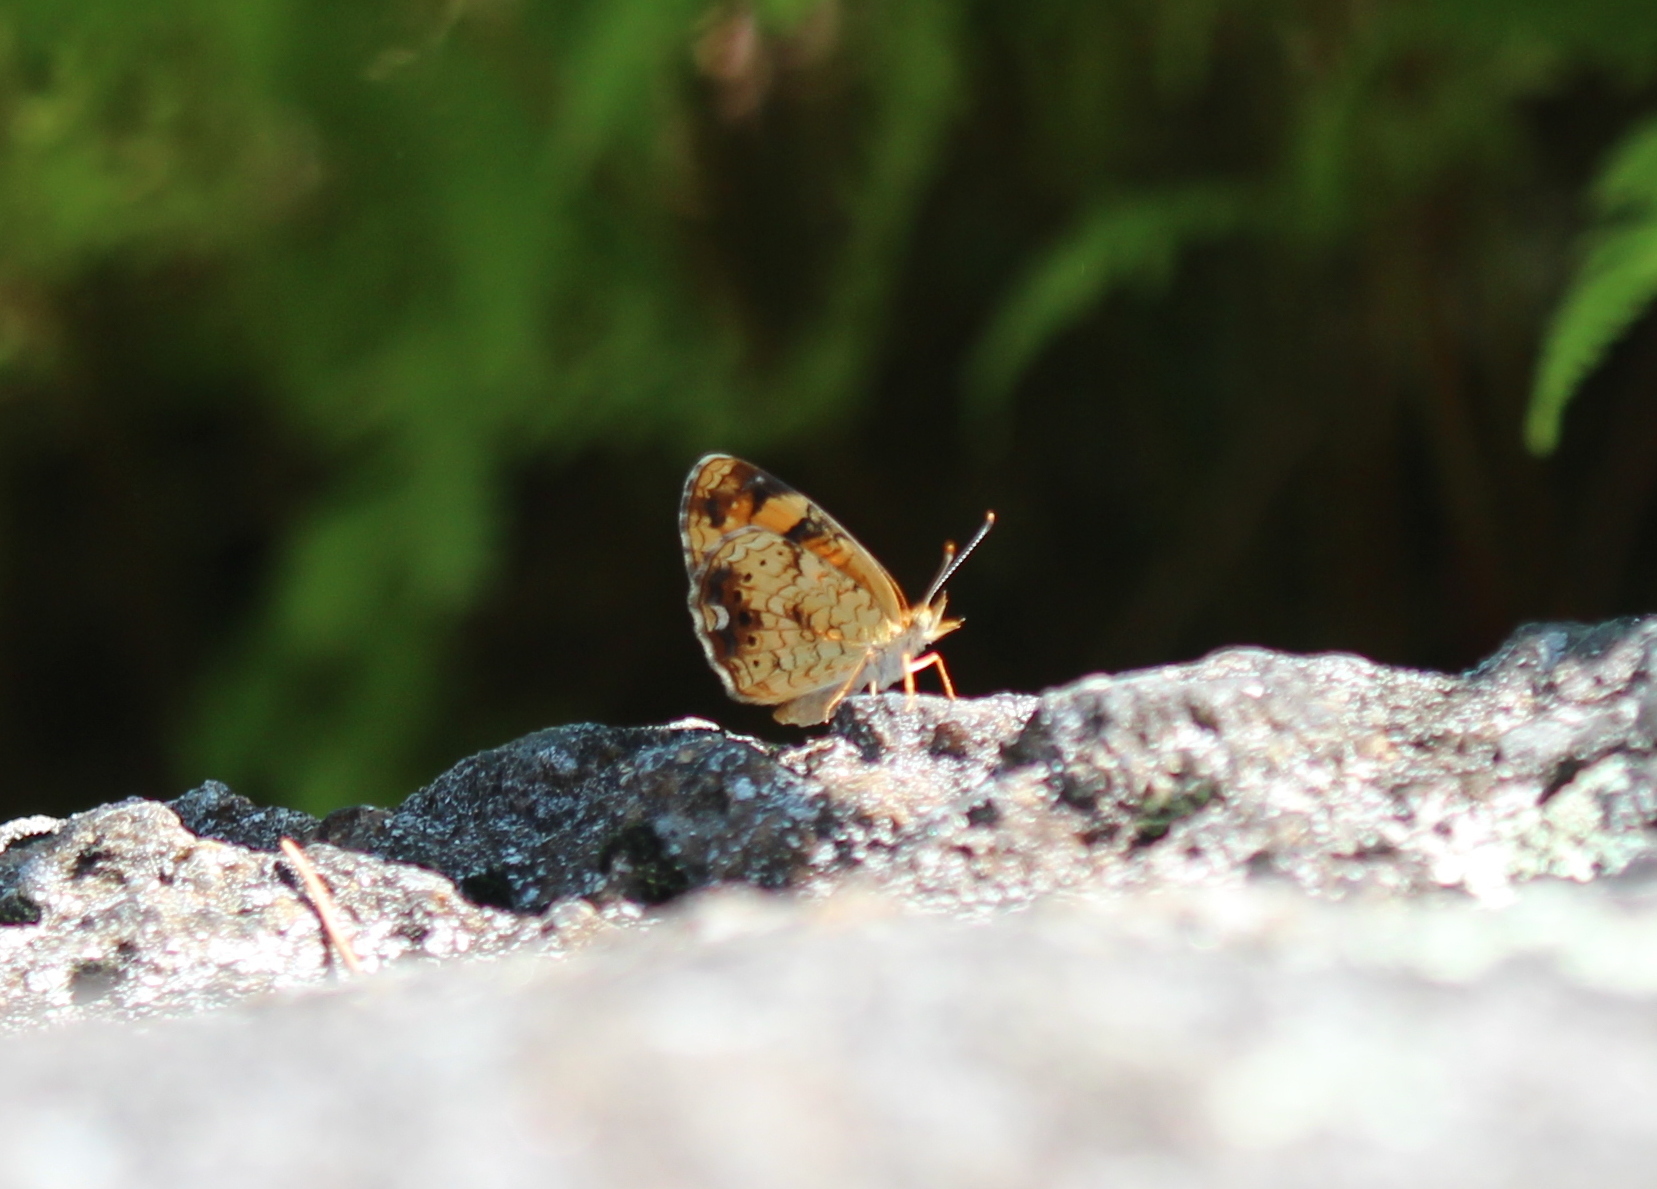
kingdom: Animalia
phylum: Arthropoda
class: Insecta
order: Lepidoptera
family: Nymphalidae
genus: Phyciodes
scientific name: Phyciodes tharos
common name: Pearl crescent
